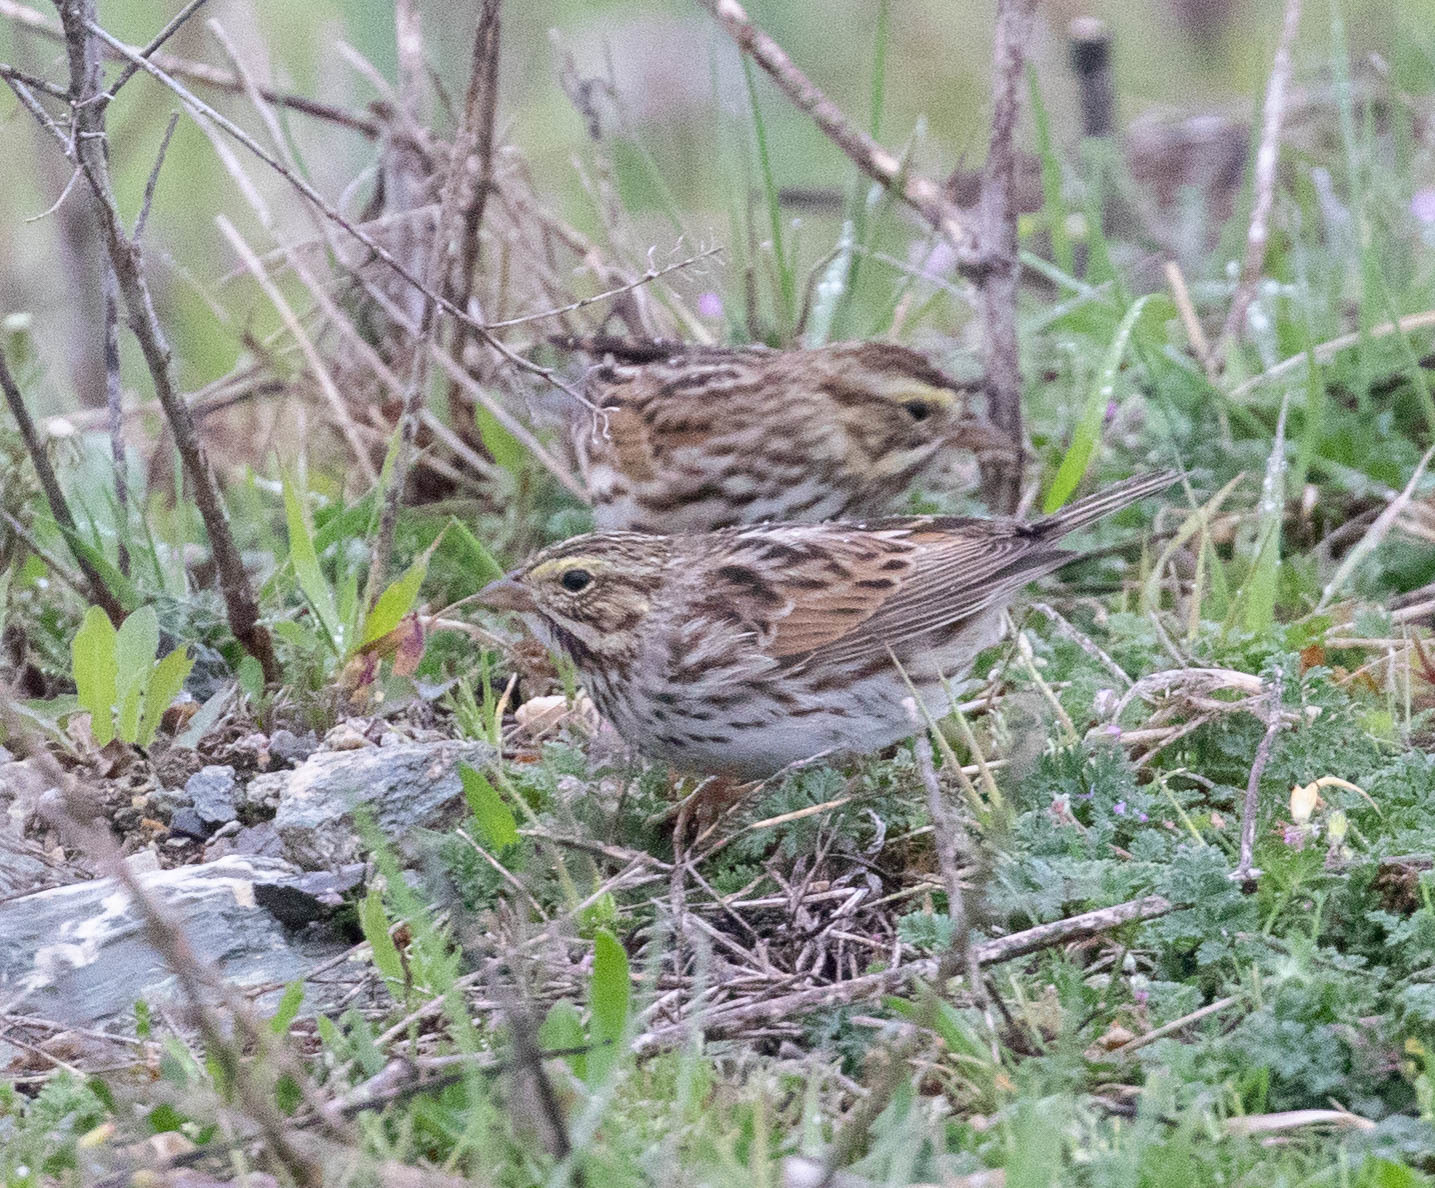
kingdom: Animalia
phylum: Chordata
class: Aves
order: Passeriformes
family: Passerellidae
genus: Passerculus
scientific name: Passerculus sandwichensis
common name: Savannah sparrow
